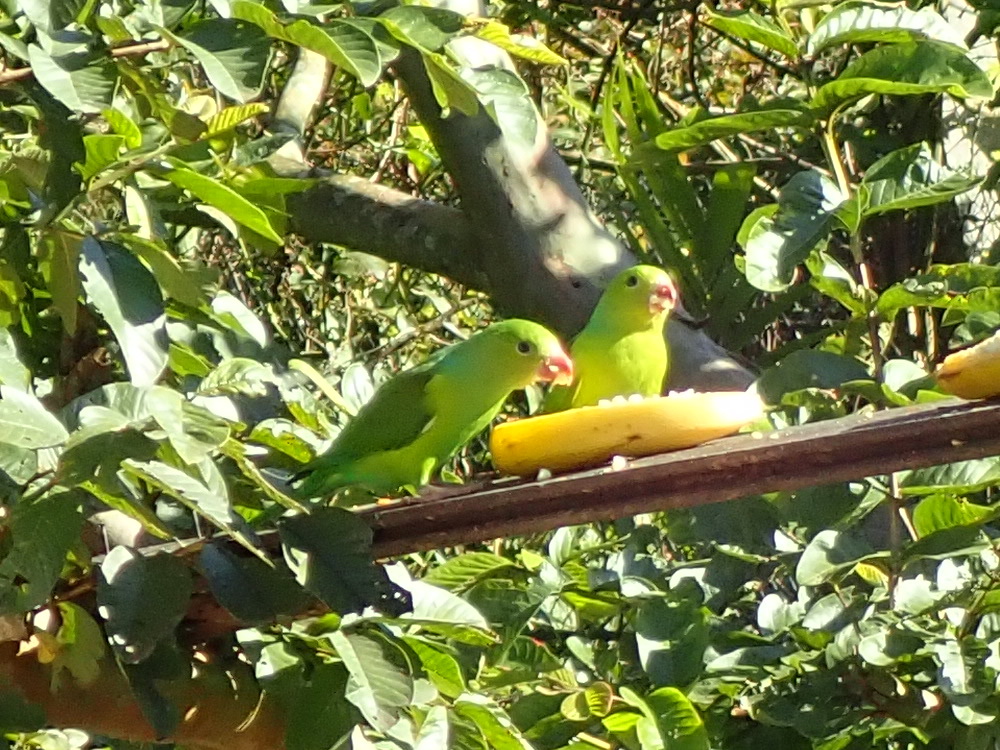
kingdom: Animalia
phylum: Chordata
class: Aves
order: Psittaciformes
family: Psittacidae
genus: Brotogeris
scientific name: Brotogeris tirica
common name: Plain parakeet
